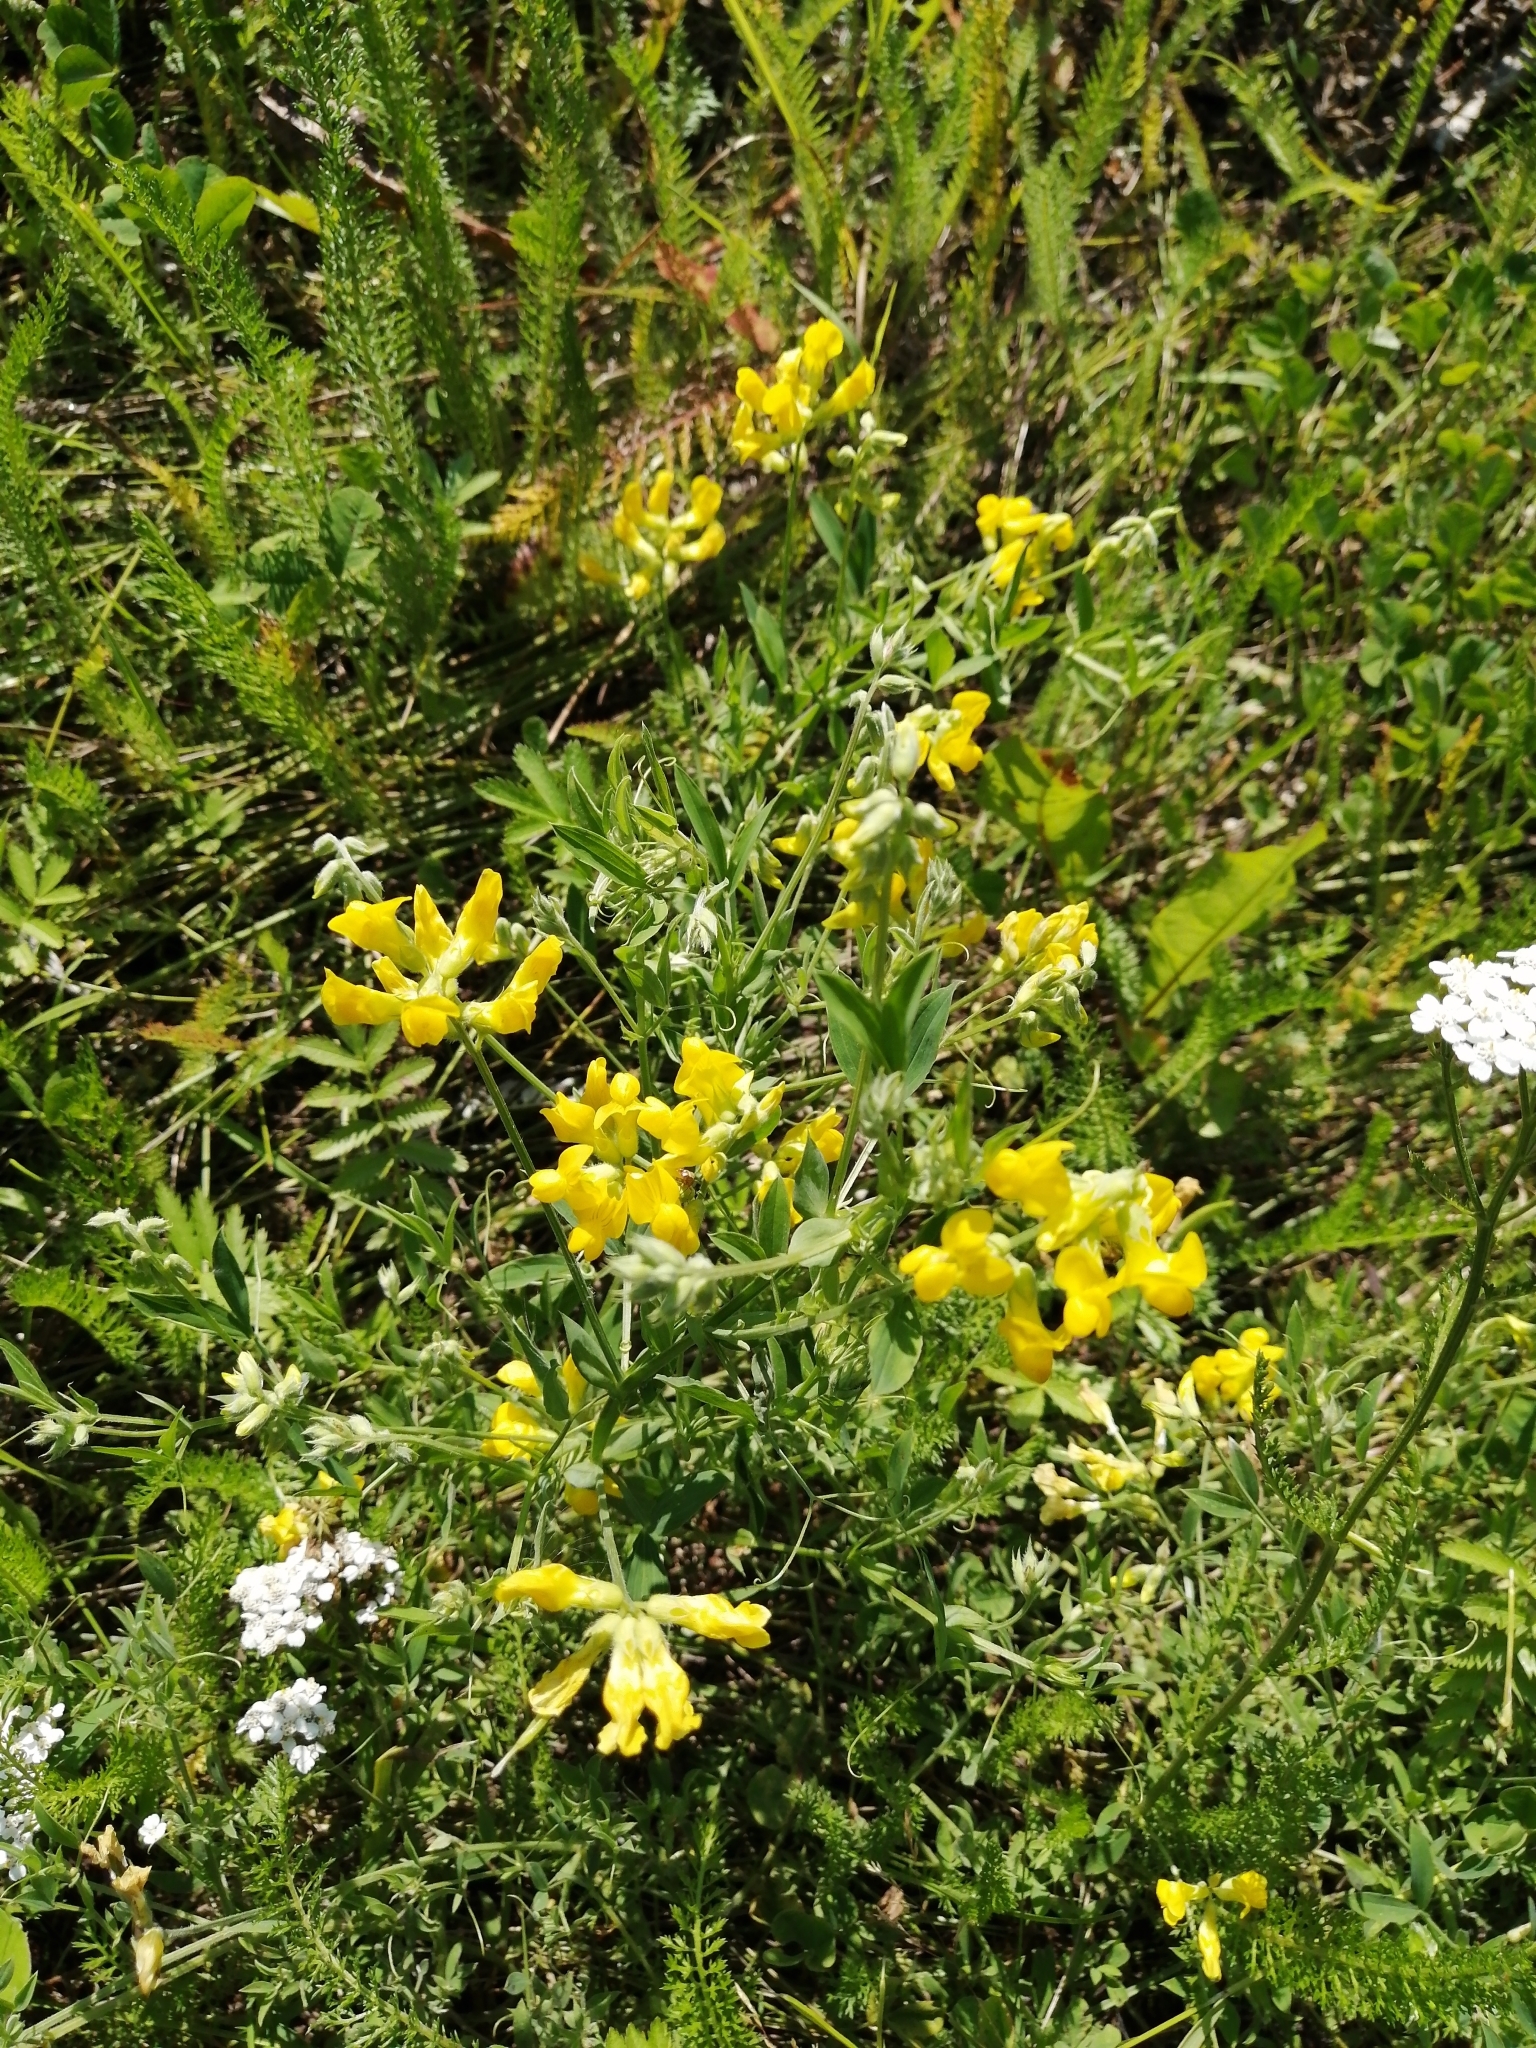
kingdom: Plantae
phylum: Tracheophyta
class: Magnoliopsida
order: Fabales
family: Fabaceae
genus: Lathyrus
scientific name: Lathyrus pratensis
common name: Meadow vetchling
